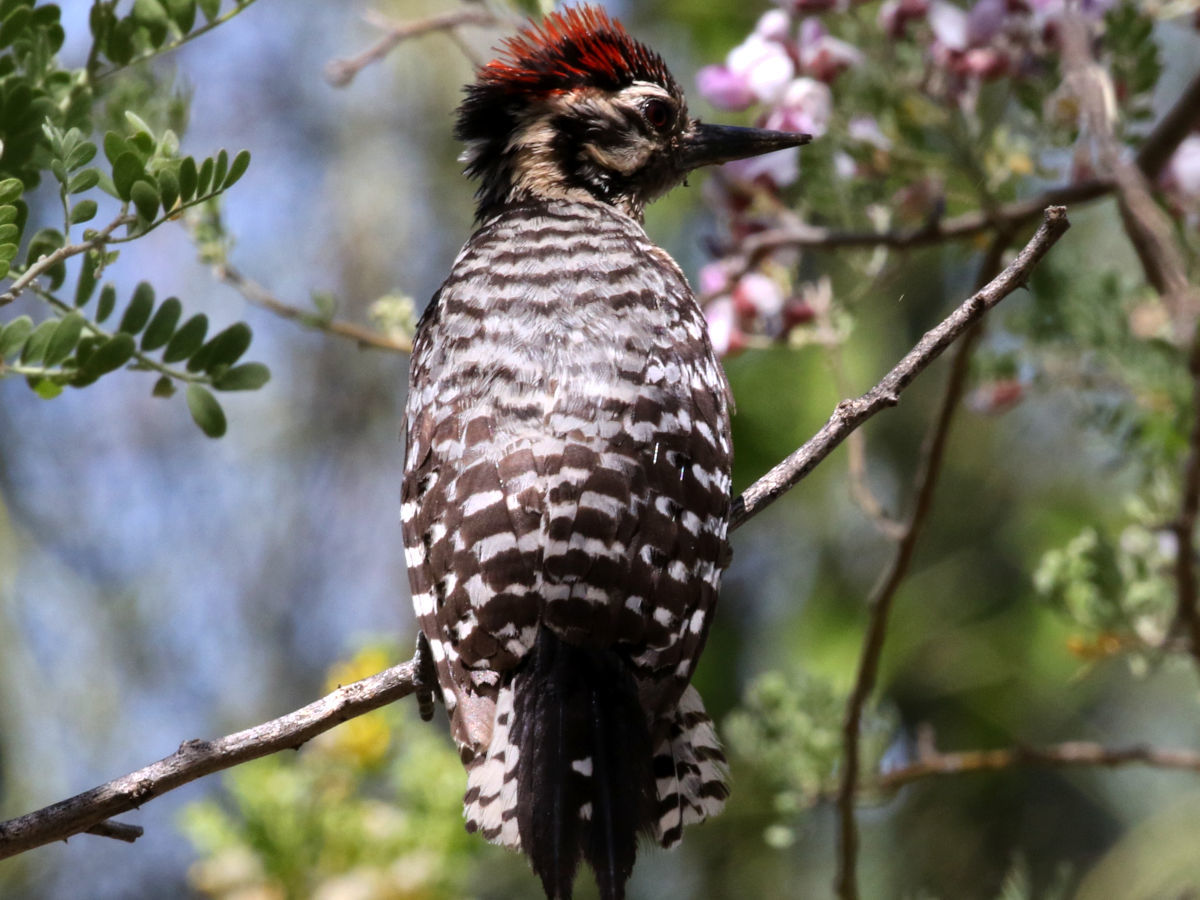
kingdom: Animalia
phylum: Chordata
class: Aves
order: Piciformes
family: Picidae
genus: Dryobates
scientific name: Dryobates scalaris
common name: Ladder-backed woodpecker
